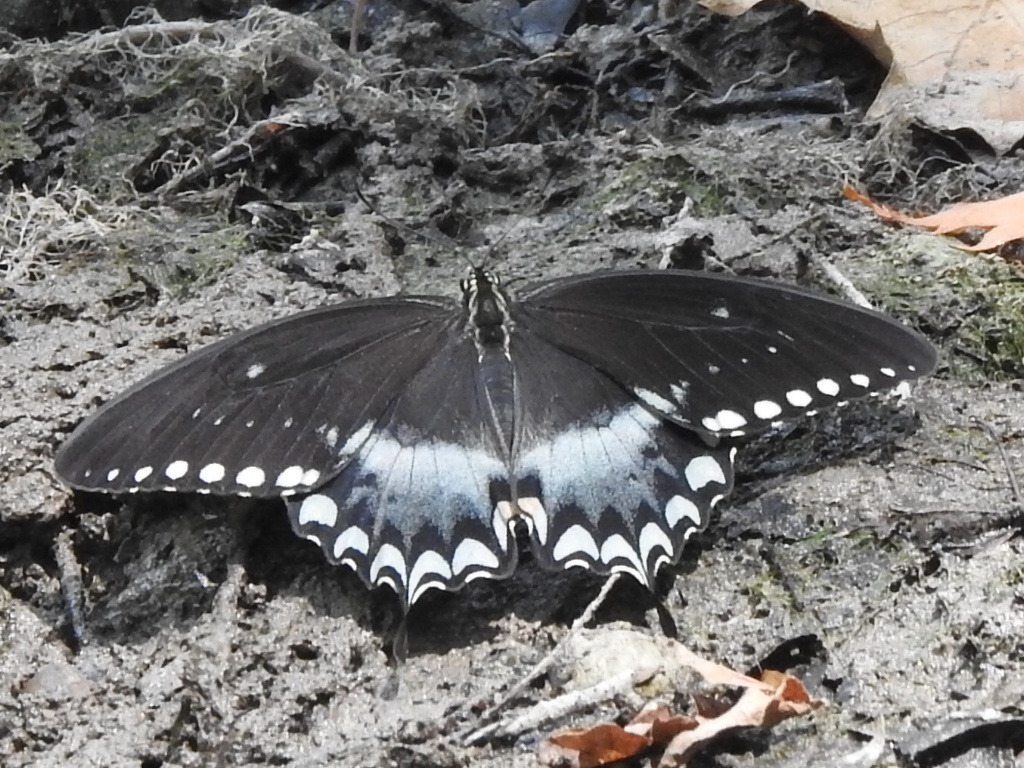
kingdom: Animalia
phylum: Arthropoda
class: Insecta
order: Lepidoptera
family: Papilionidae
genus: Papilio
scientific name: Papilio troilus
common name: Spicebush swallowtail
